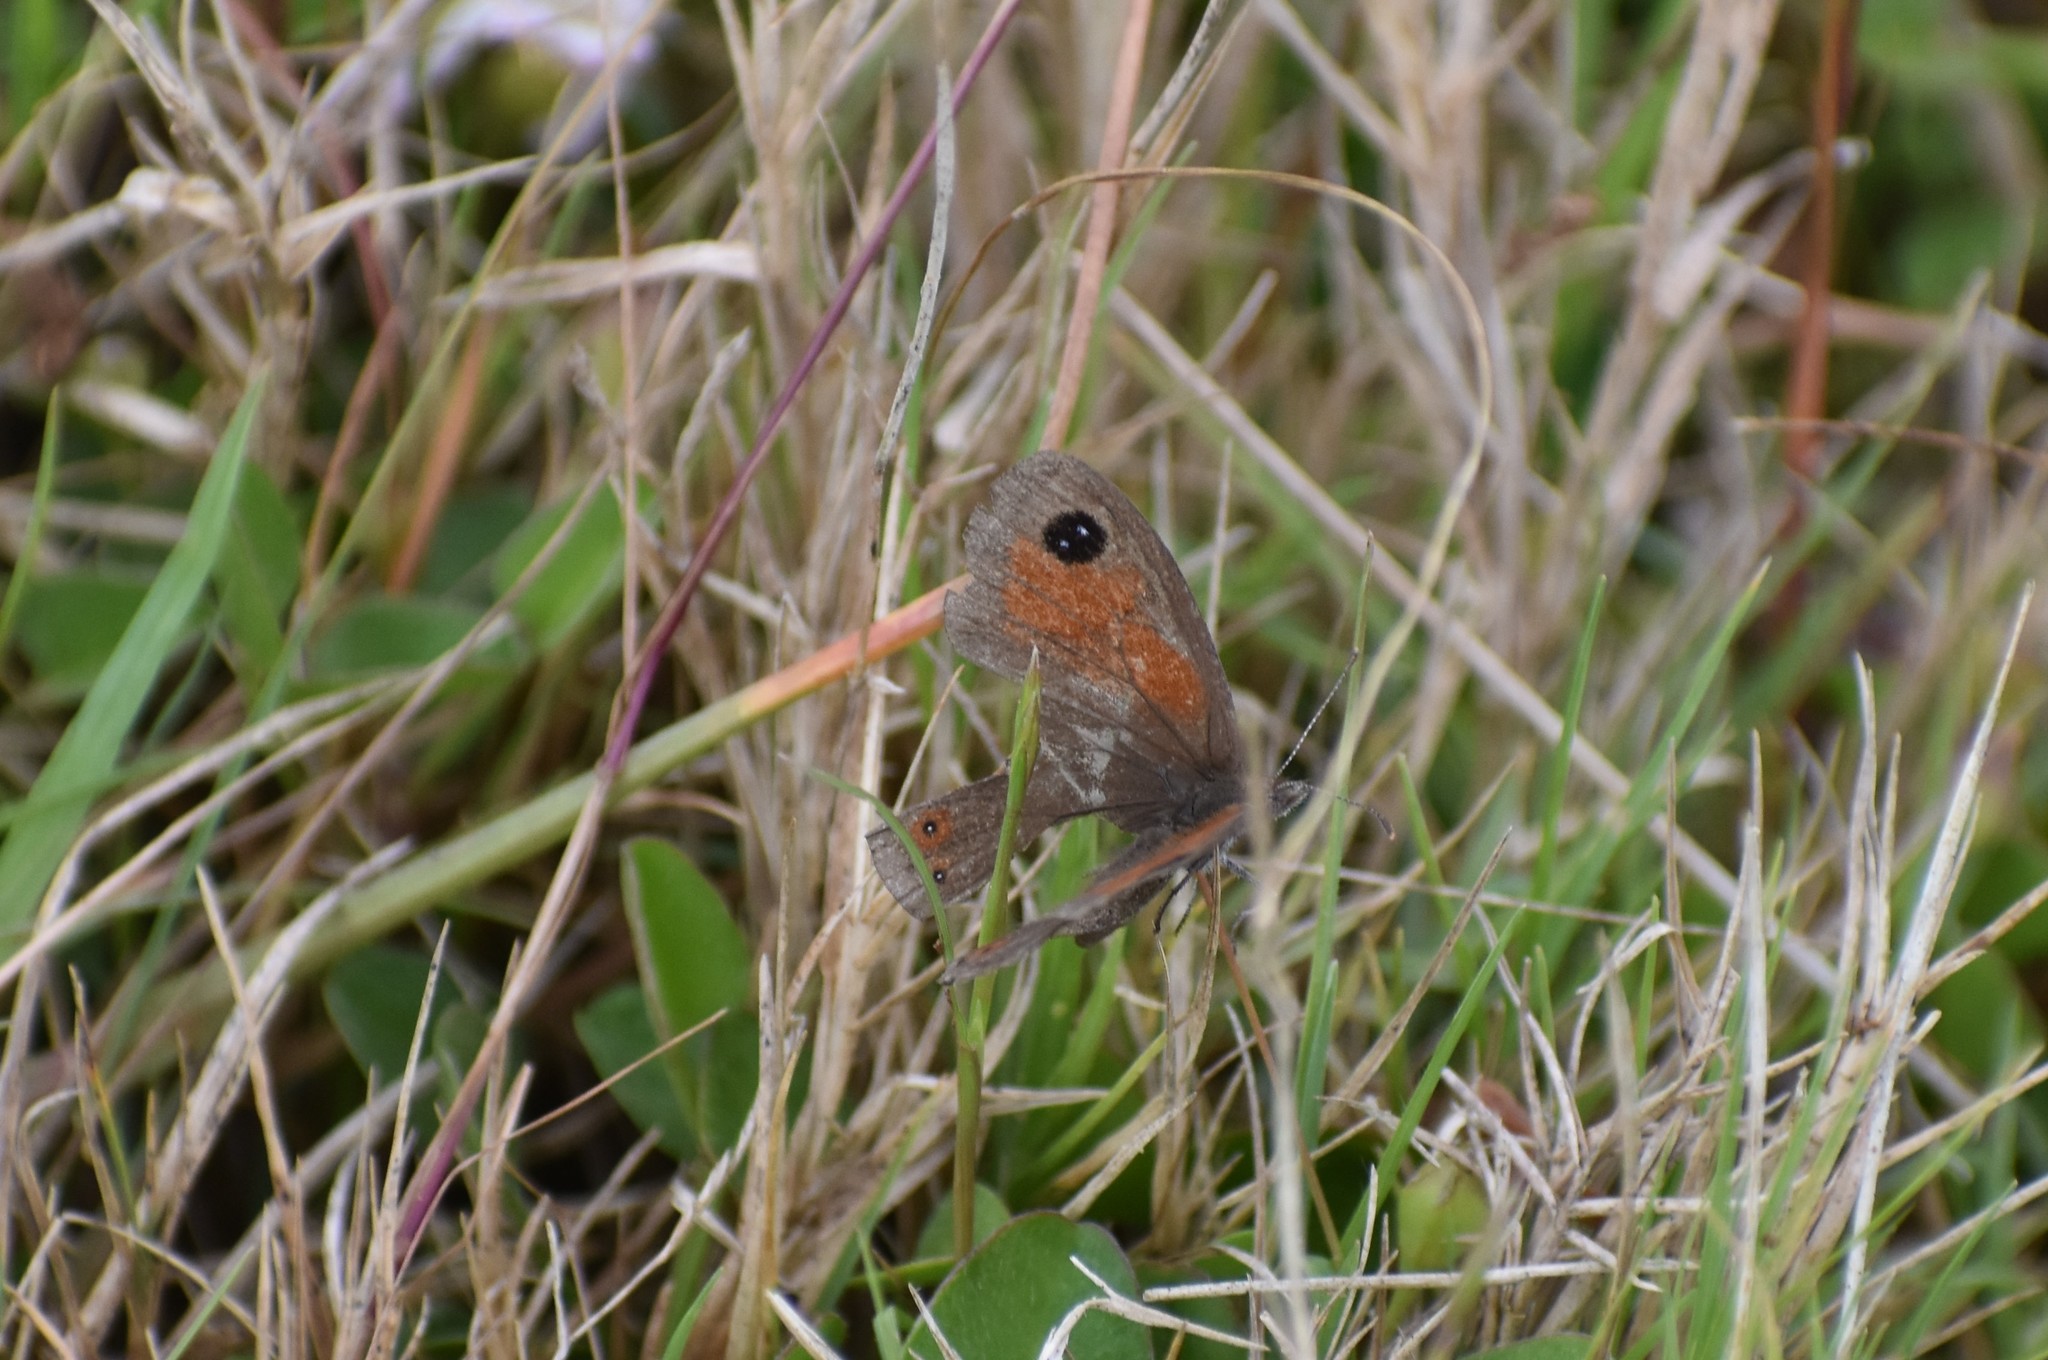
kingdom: Animalia
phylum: Arthropoda
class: Insecta
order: Lepidoptera
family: Nymphalidae
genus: Pseudonympha
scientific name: Pseudonympha magus
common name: Silver-bottom brown
